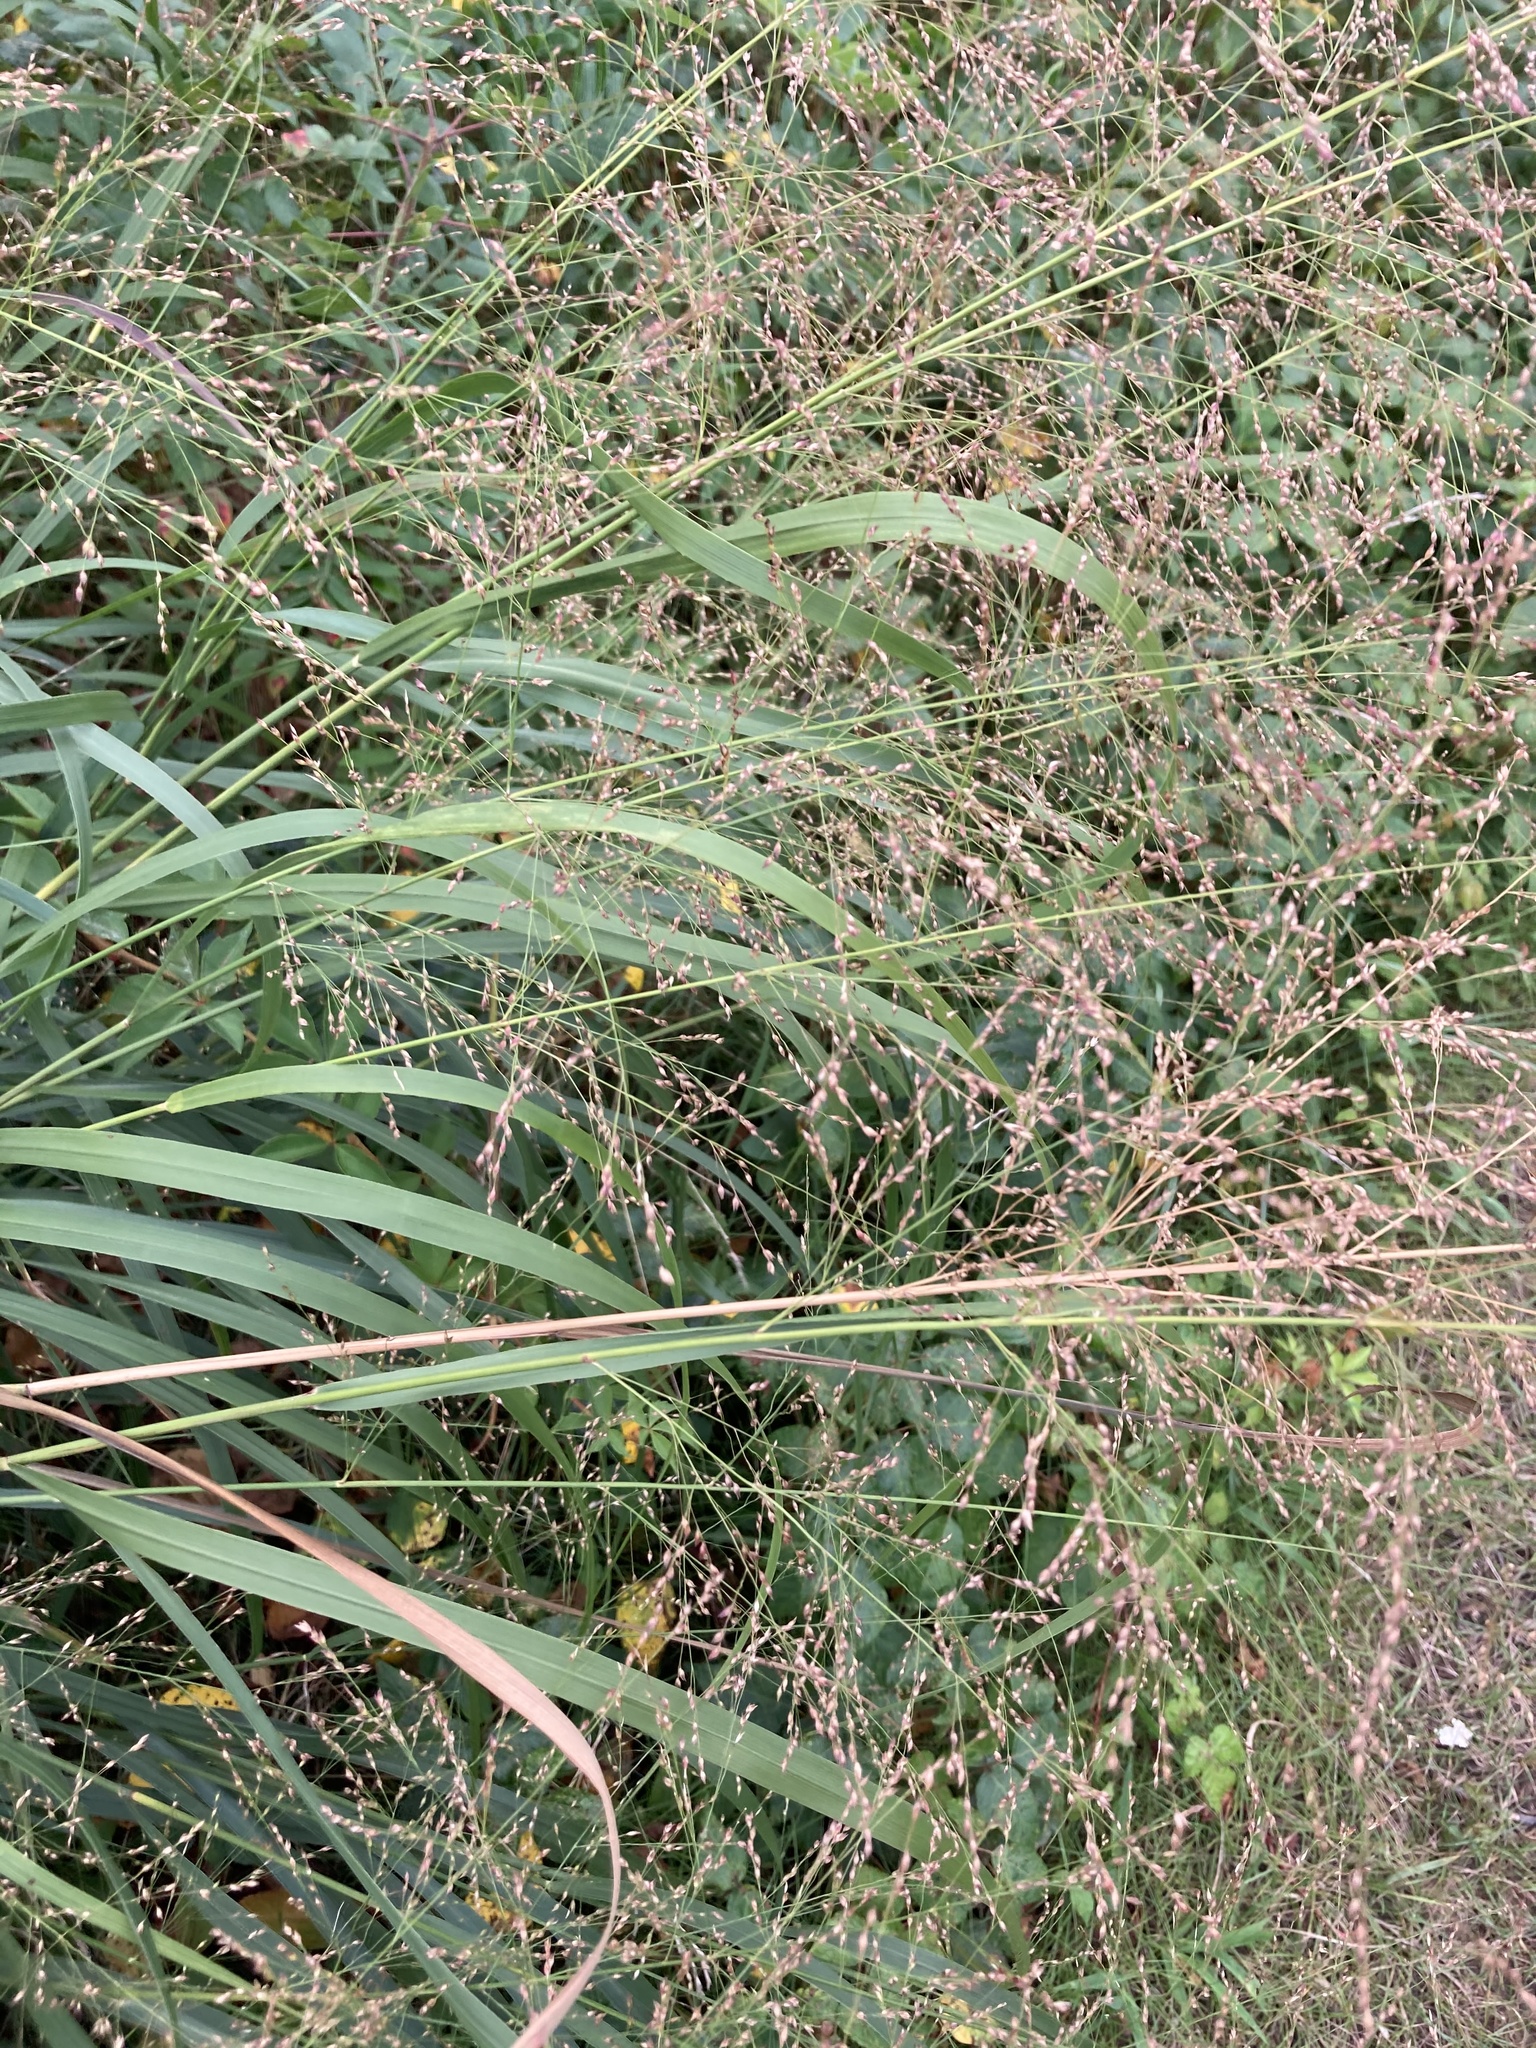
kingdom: Plantae
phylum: Tracheophyta
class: Liliopsida
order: Poales
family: Poaceae
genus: Panicum
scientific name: Panicum virgatum
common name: Switchgrass
